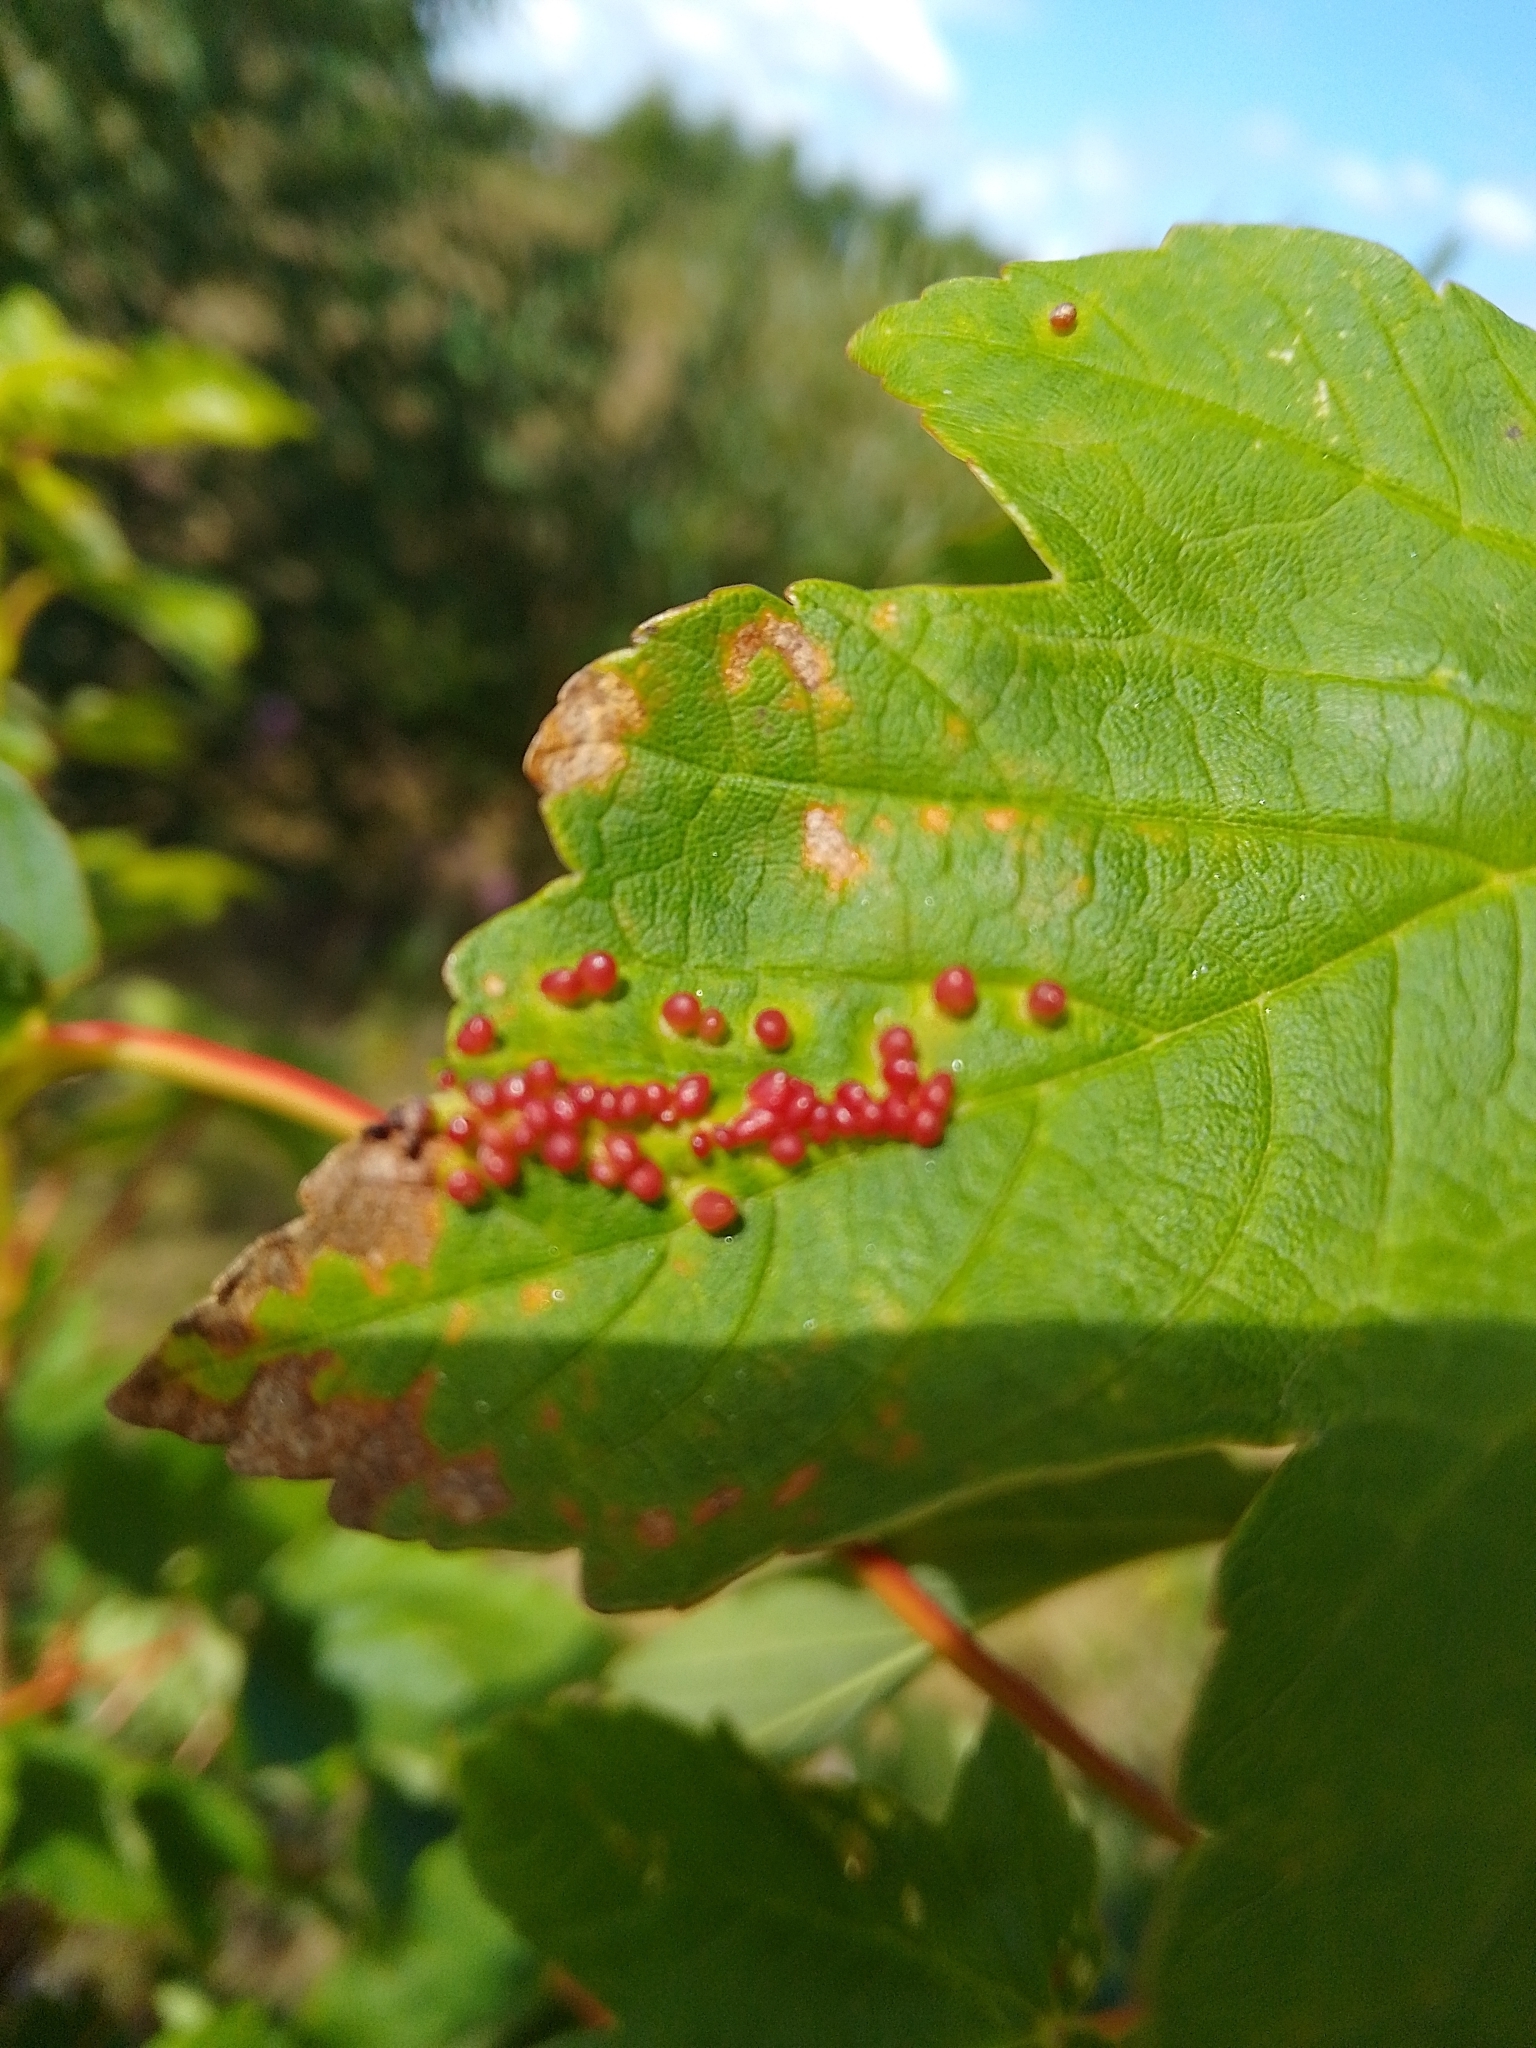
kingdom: Animalia
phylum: Arthropoda
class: Arachnida
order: Trombidiformes
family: Eriophyidae
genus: Aceria
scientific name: Aceria cephaloneus
